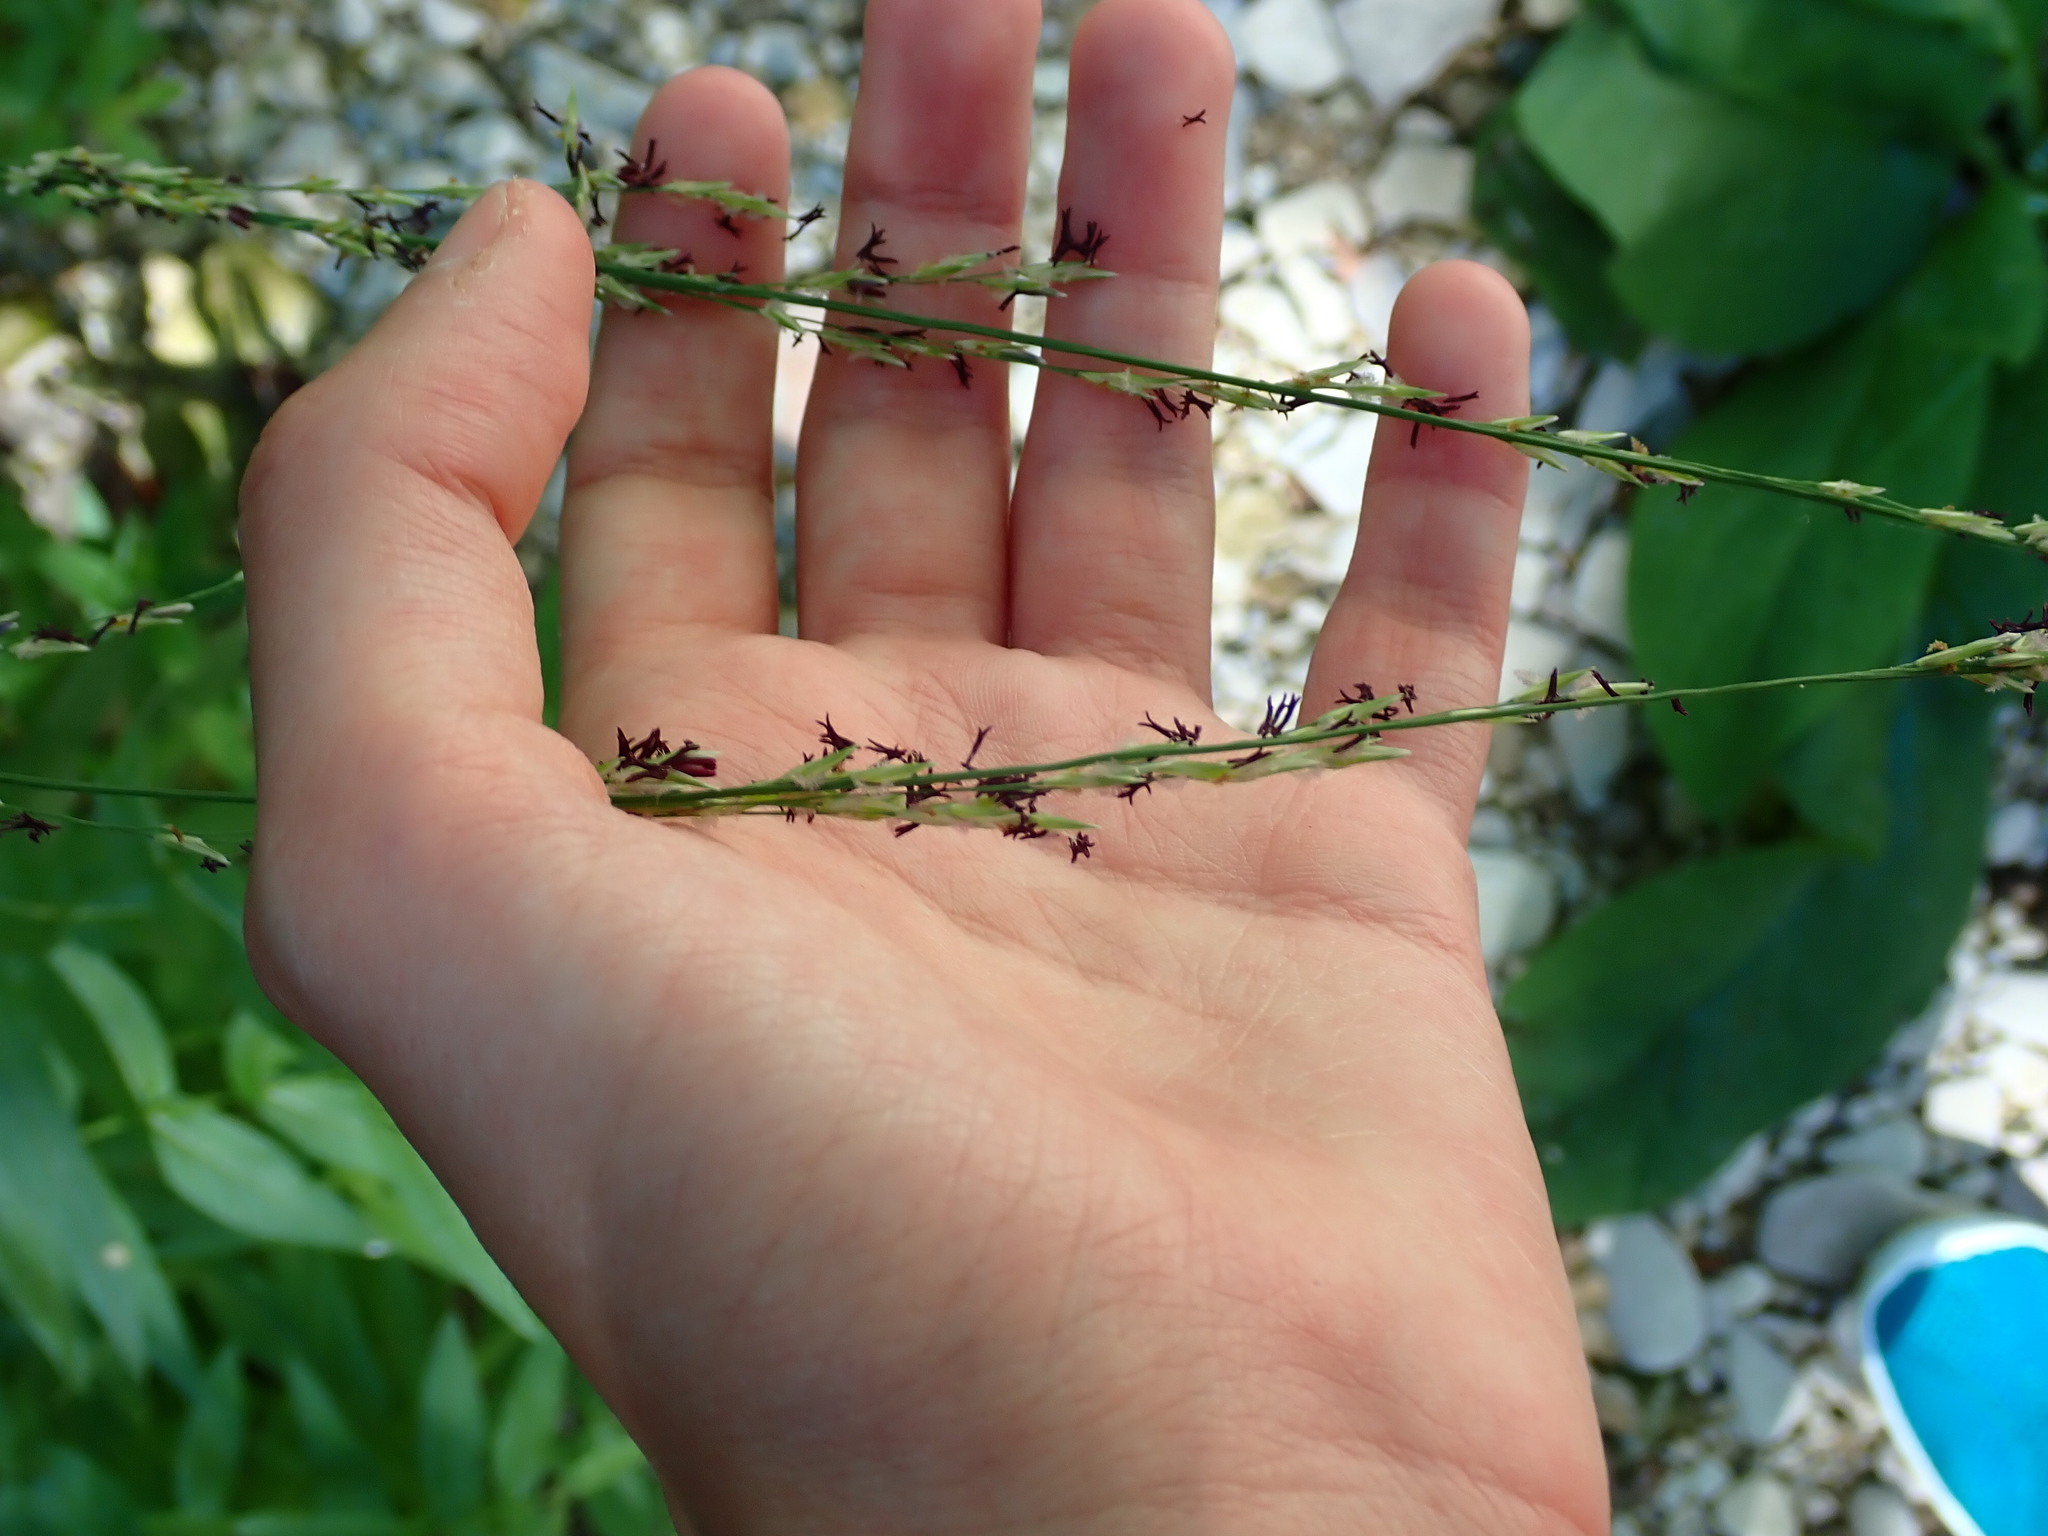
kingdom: Plantae
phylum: Tracheophyta
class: Liliopsida
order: Poales
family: Poaceae
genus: Molinia
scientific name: Molinia caerulea
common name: Purple moor-grass
